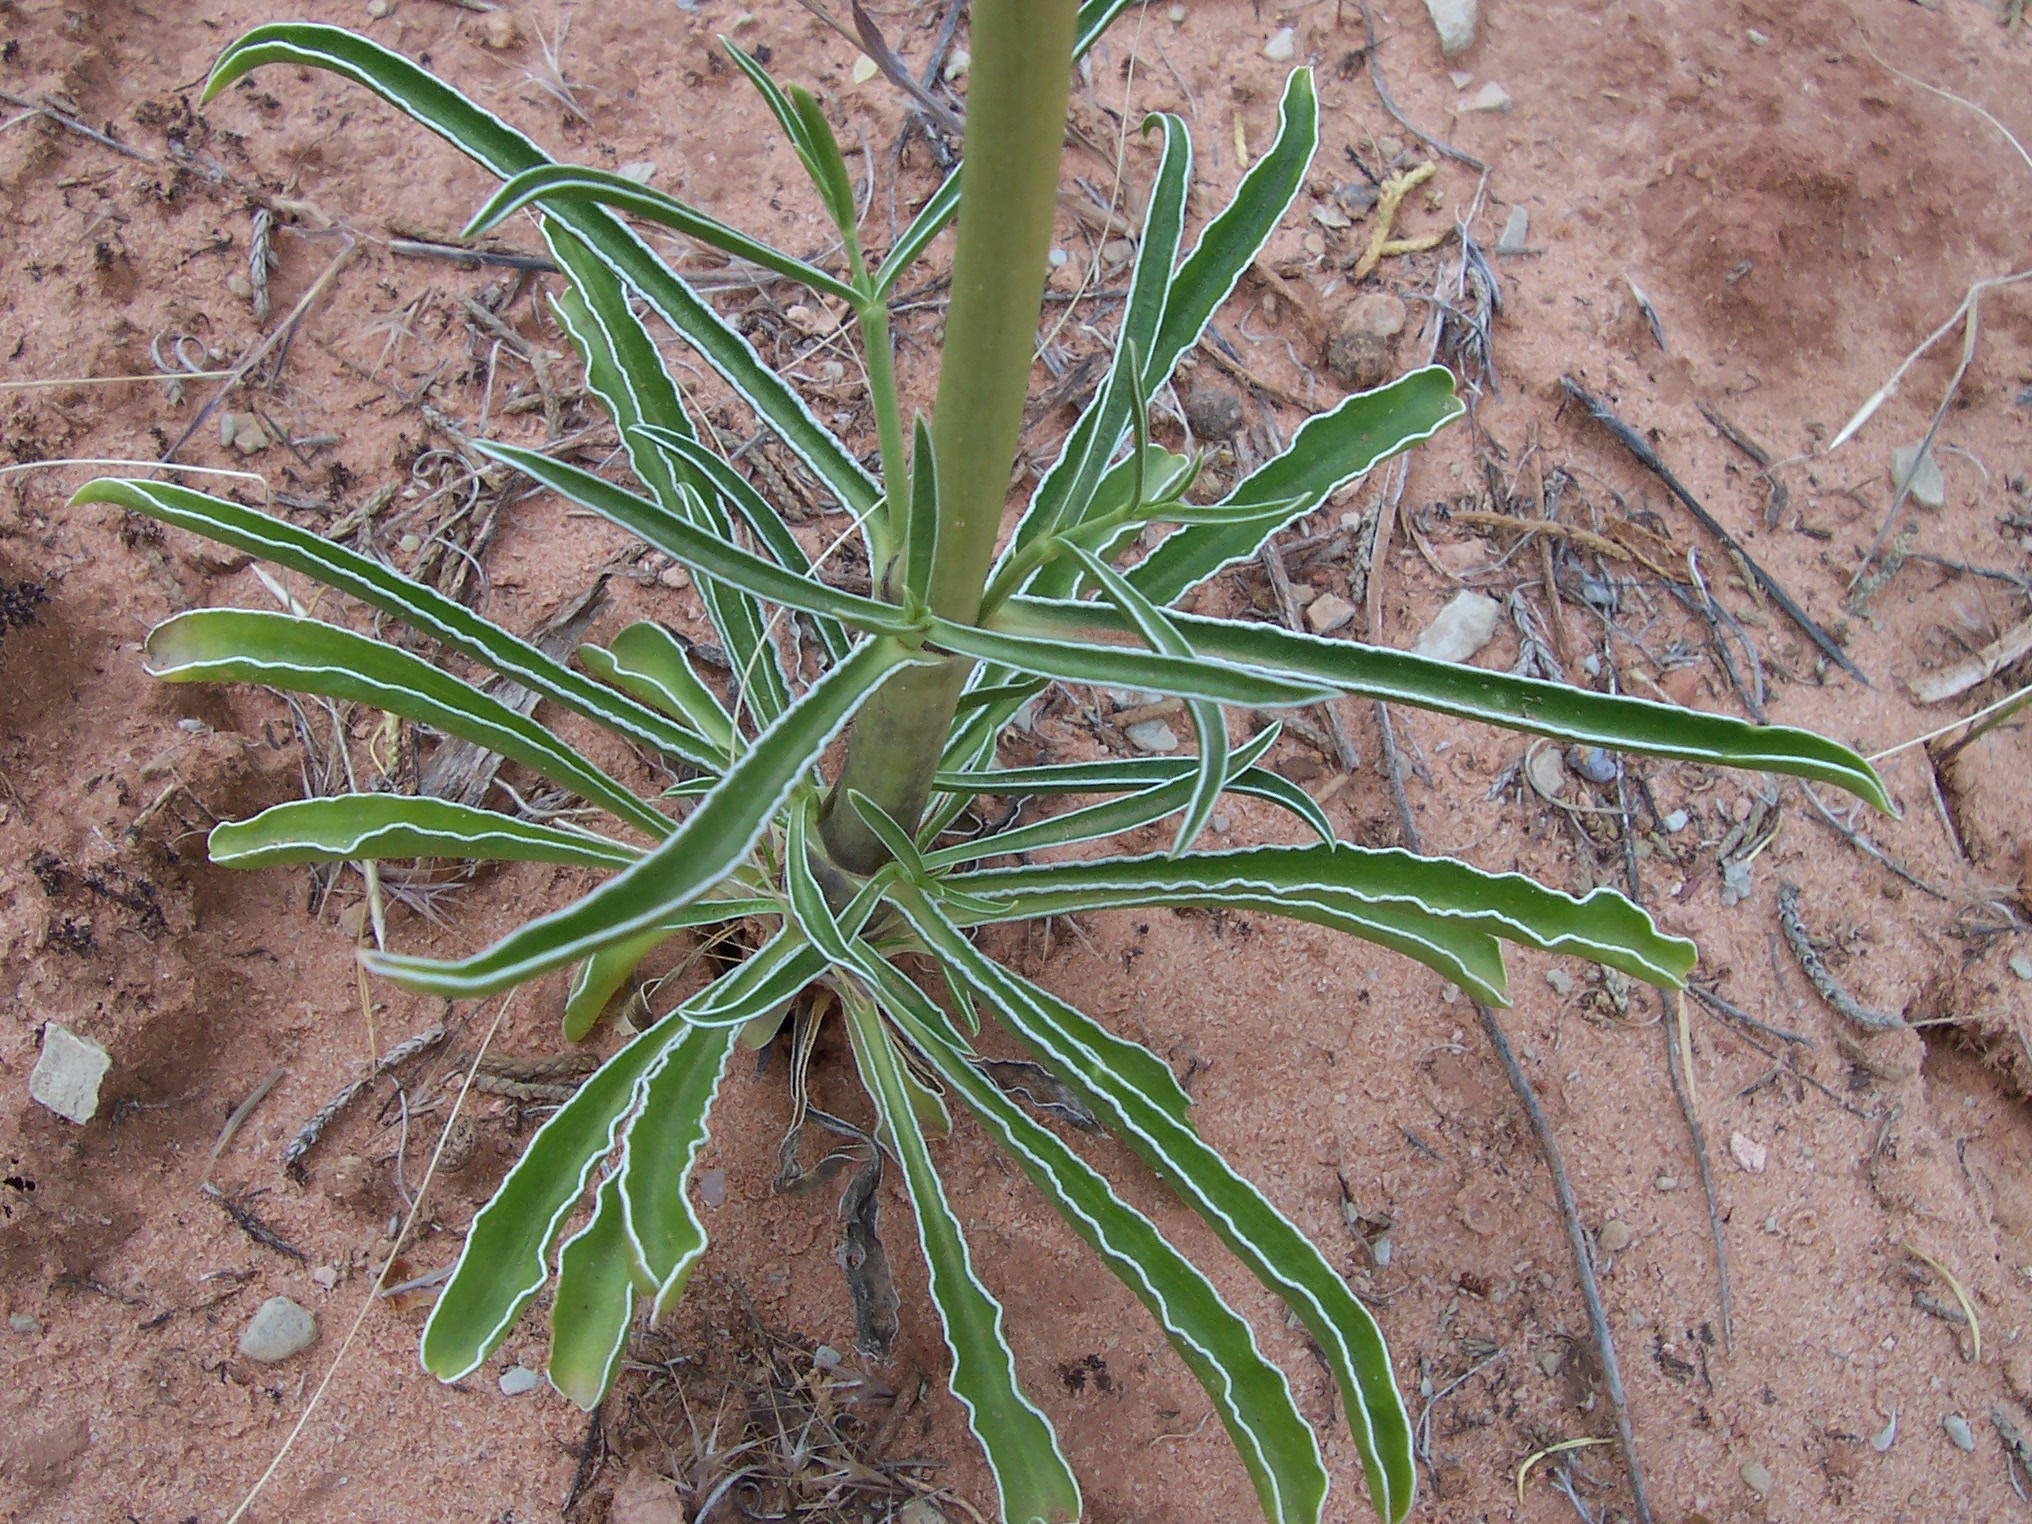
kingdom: Plantae
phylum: Tracheophyta
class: Magnoliopsida
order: Gentianales
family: Gentianaceae
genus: Frasera
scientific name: Frasera albomarginata
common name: Desert frasera
